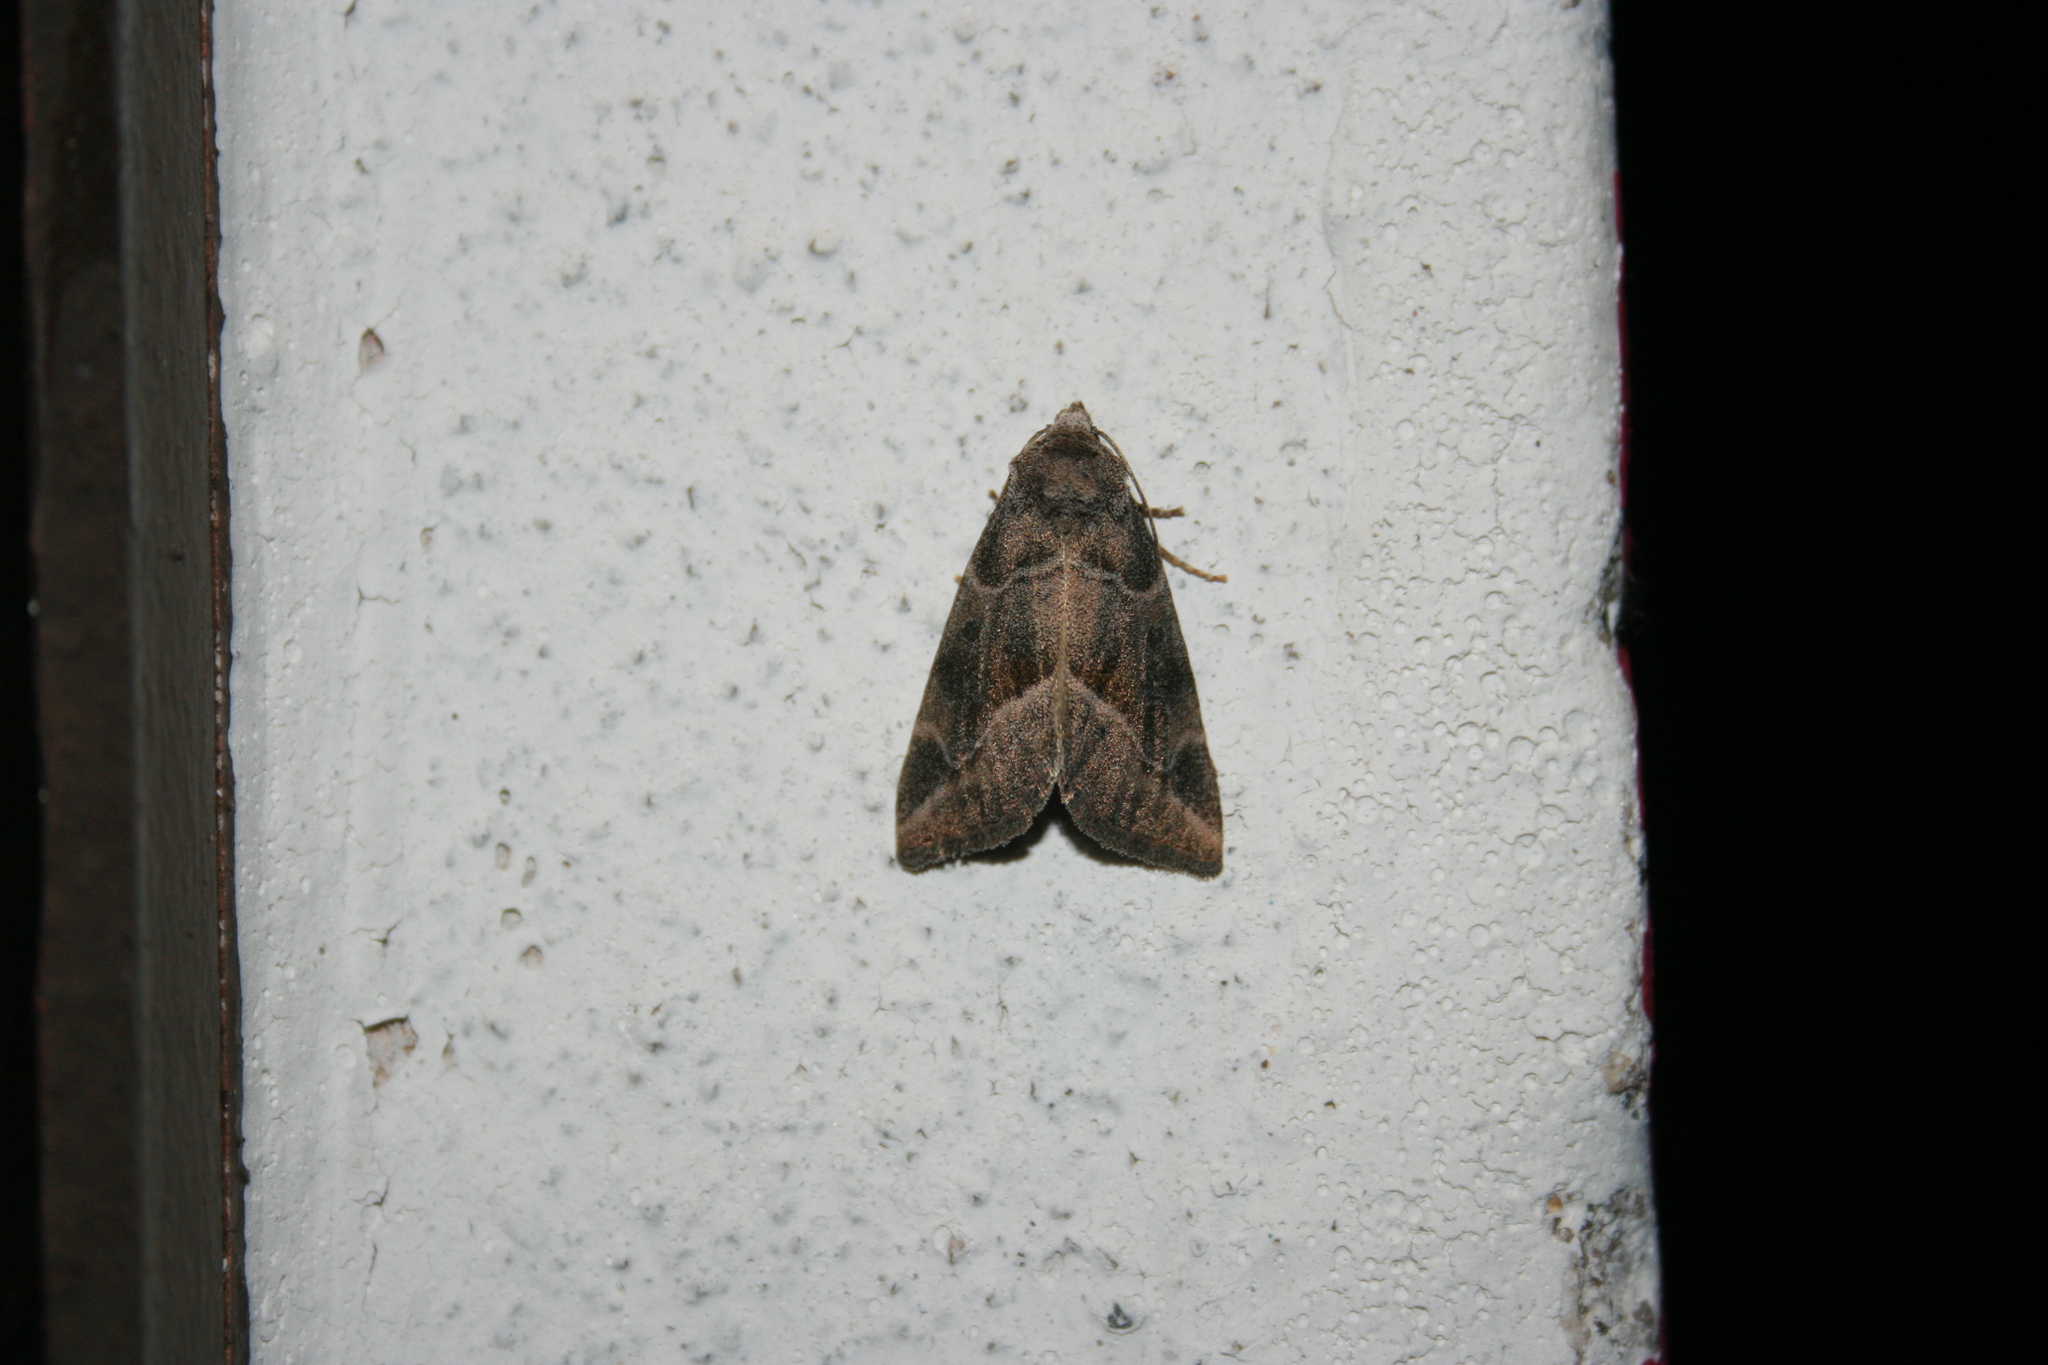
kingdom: Animalia
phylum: Arthropoda
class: Insecta
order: Lepidoptera
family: Noctuidae
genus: Plagiomimicus
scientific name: Plagiomimicus
